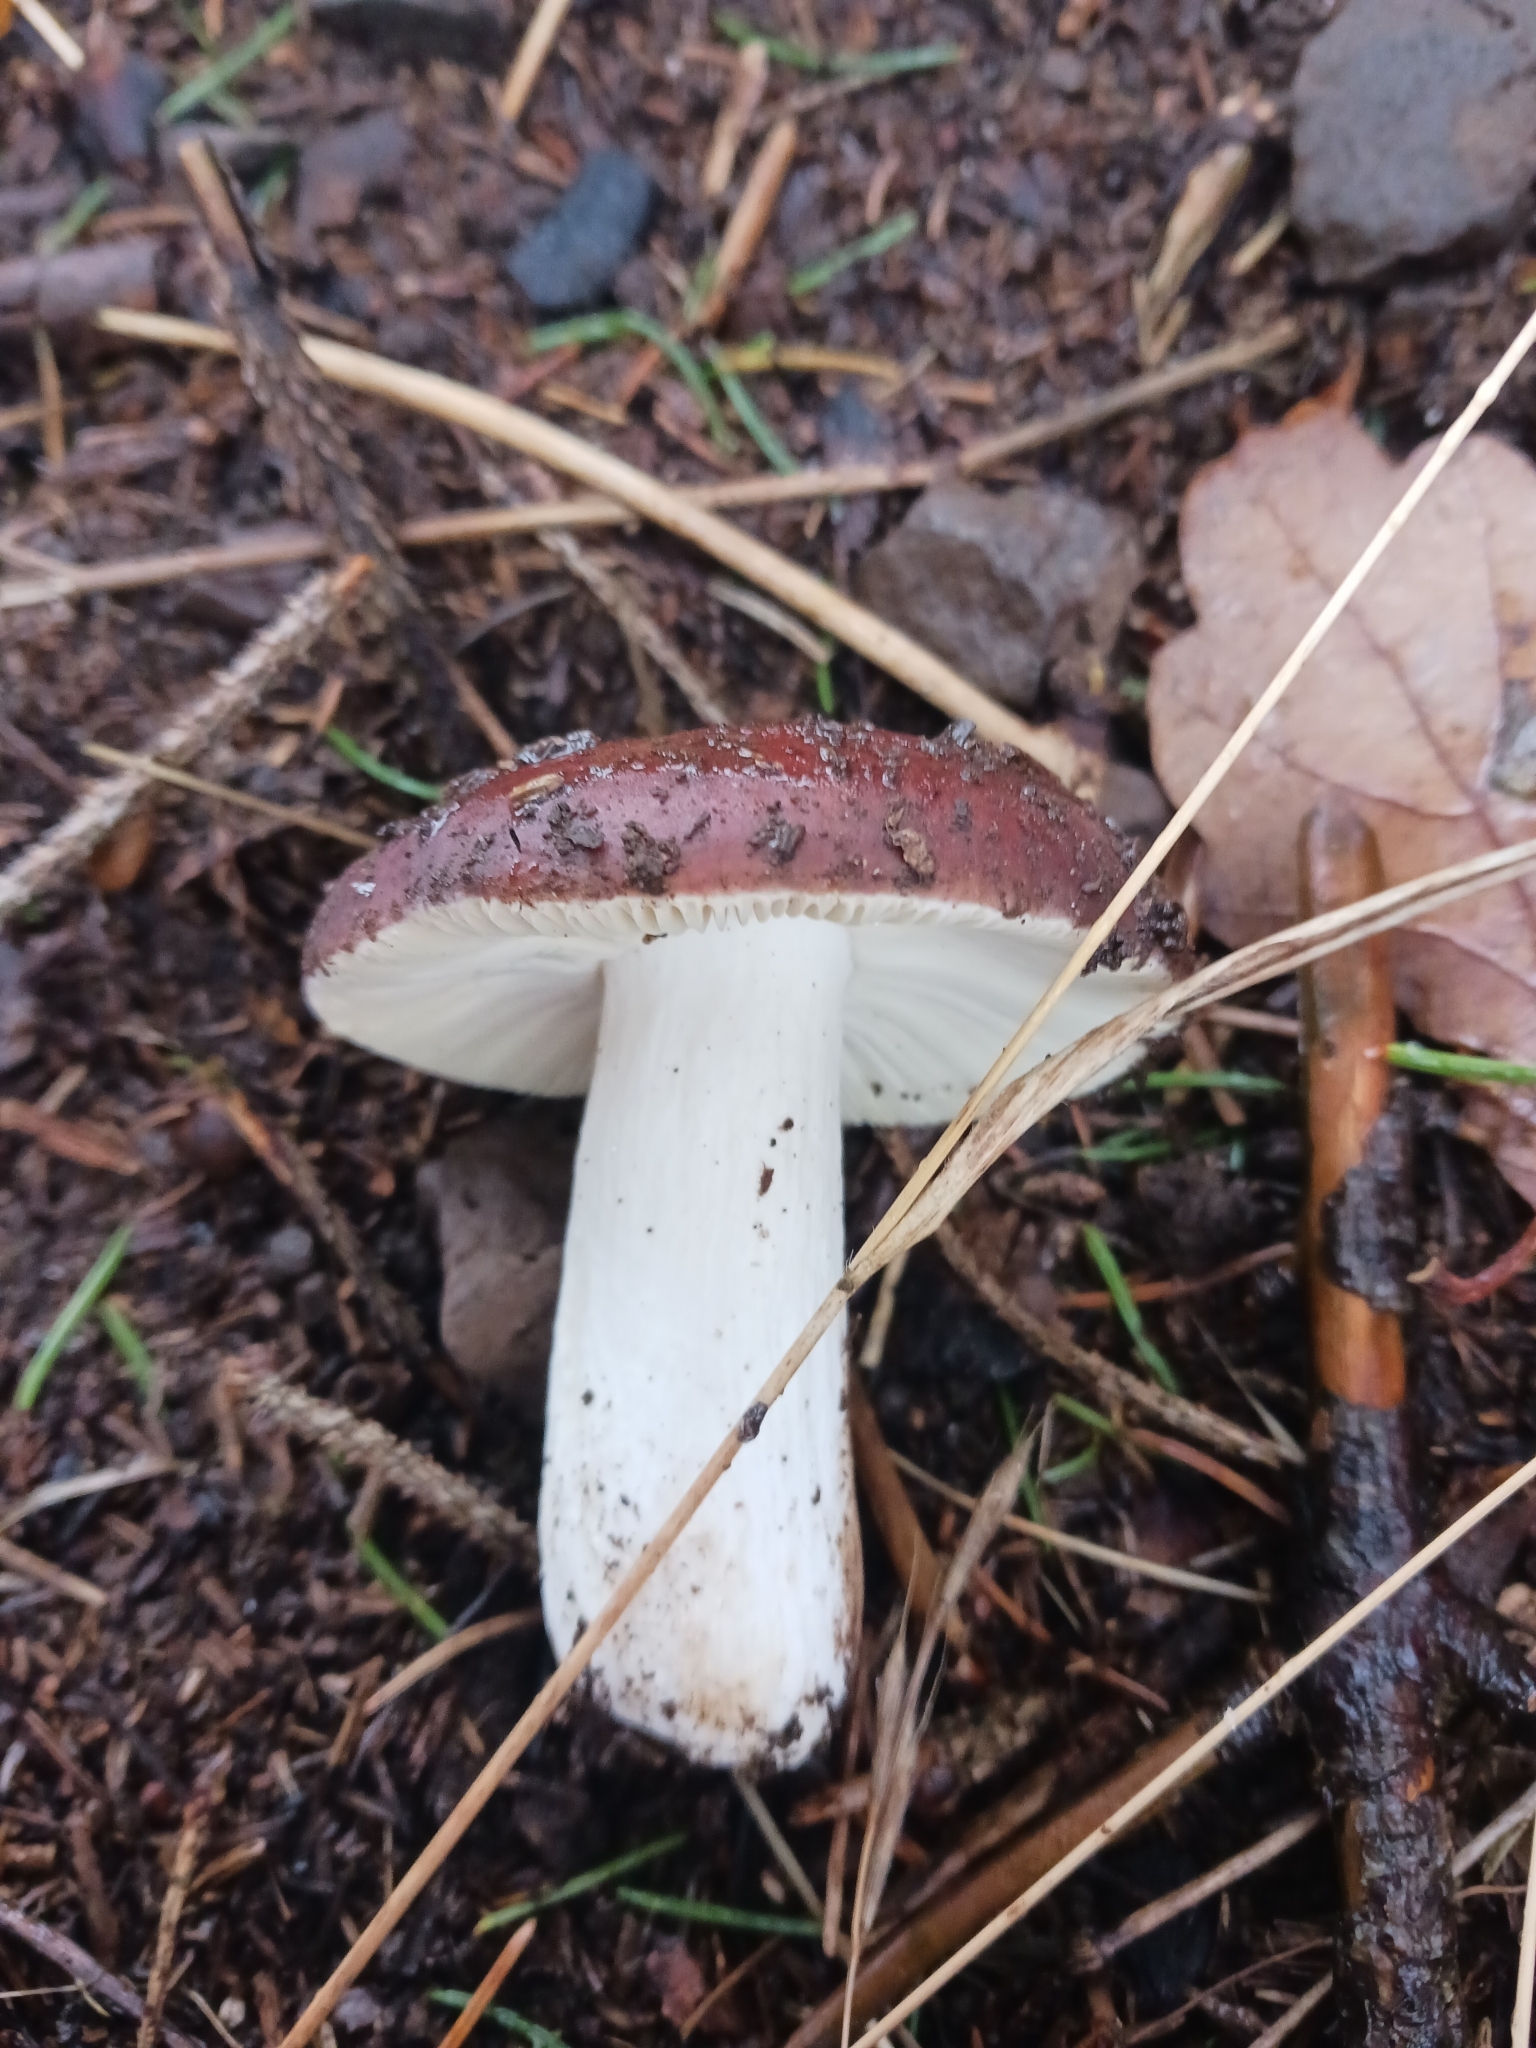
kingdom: Fungi
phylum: Basidiomycota
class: Agaricomycetes
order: Russulales
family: Russulaceae
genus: Russula
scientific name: Russula integra
